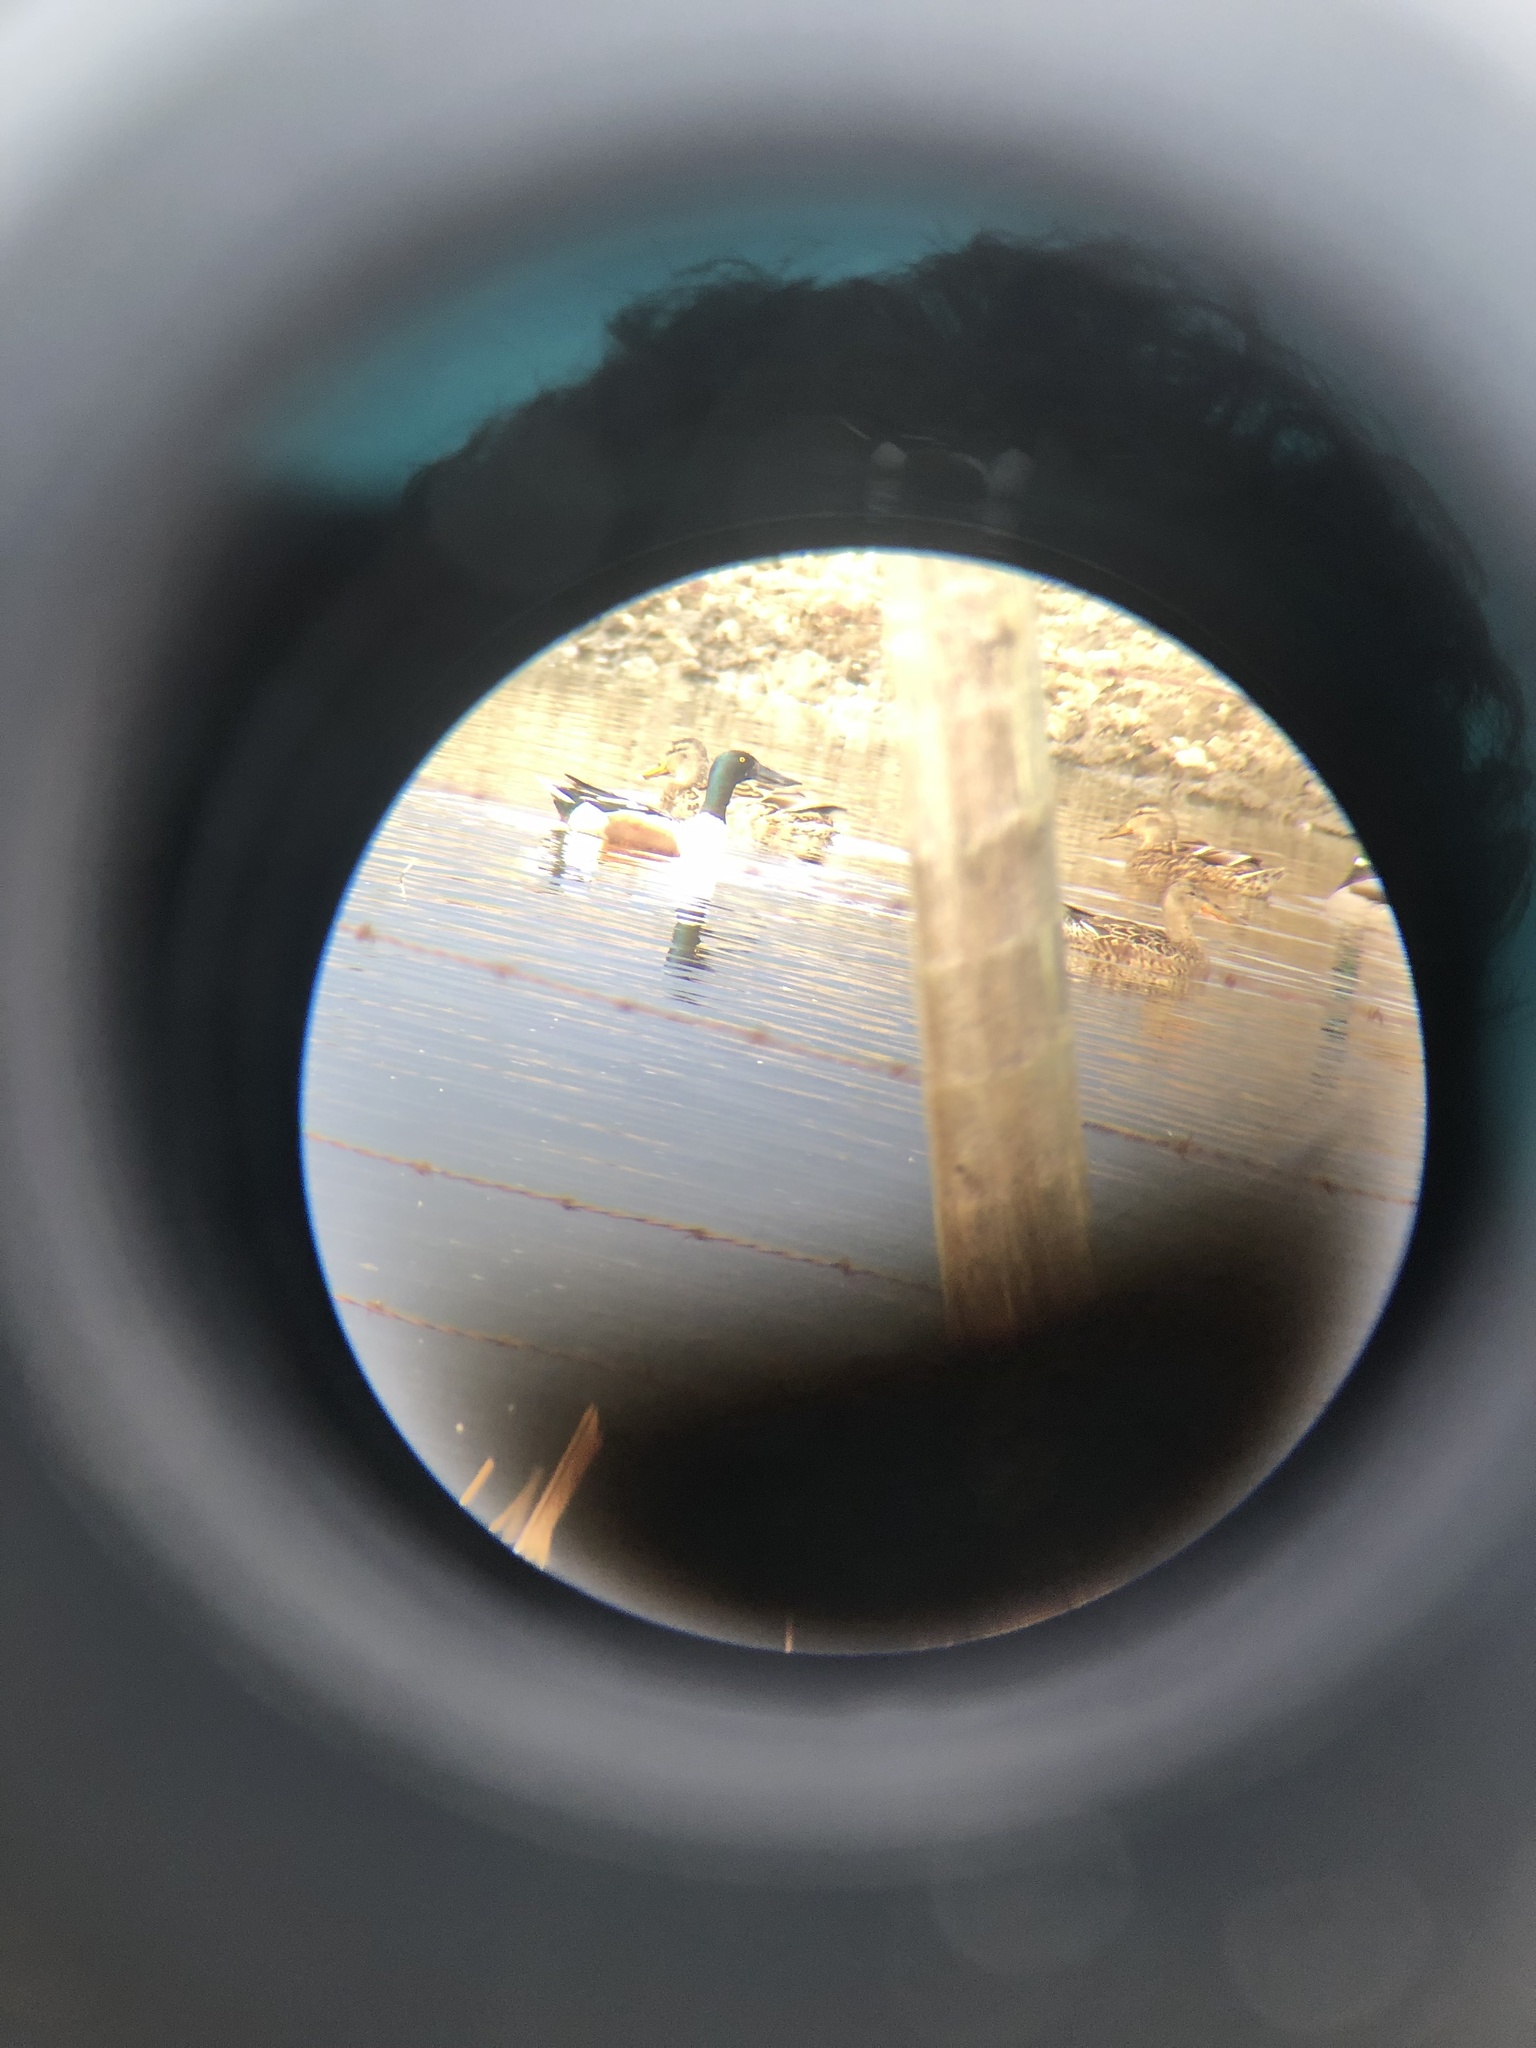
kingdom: Animalia
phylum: Chordata
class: Aves
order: Anseriformes
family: Anatidae
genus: Spatula
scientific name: Spatula clypeata
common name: Northern shoveler
